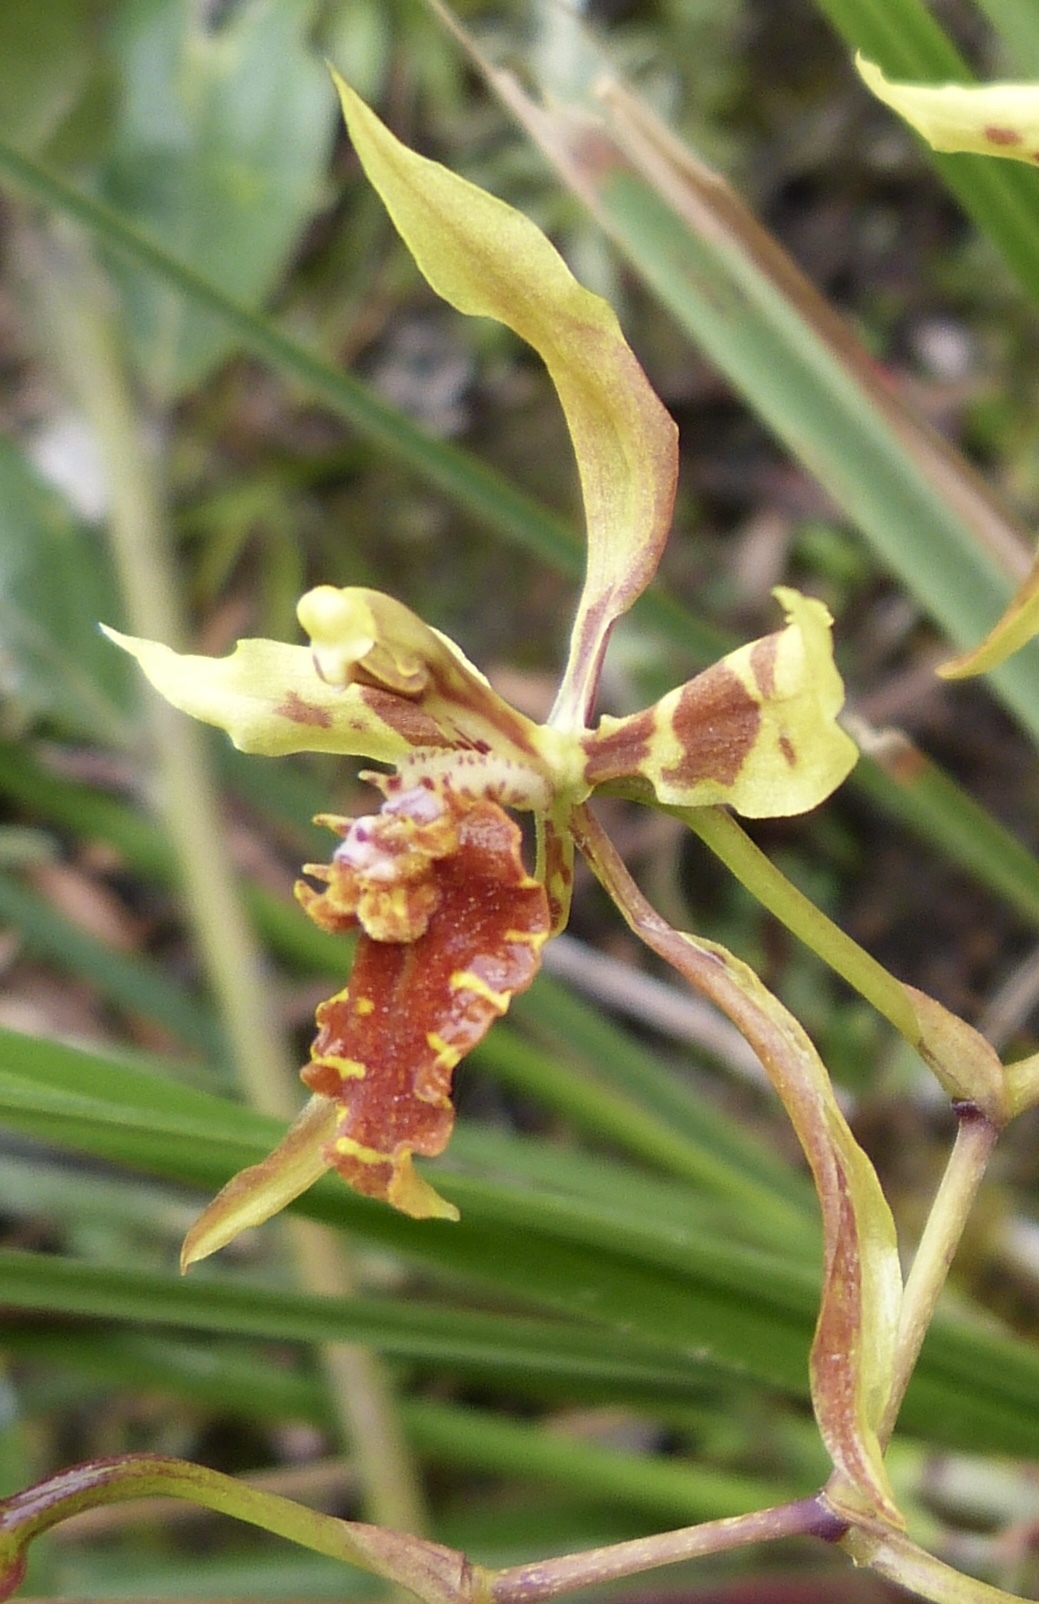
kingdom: Plantae
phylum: Tracheophyta
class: Liliopsida
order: Asparagales
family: Orchidaceae
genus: Cyrtochilum
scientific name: Cyrtochilum weirii
